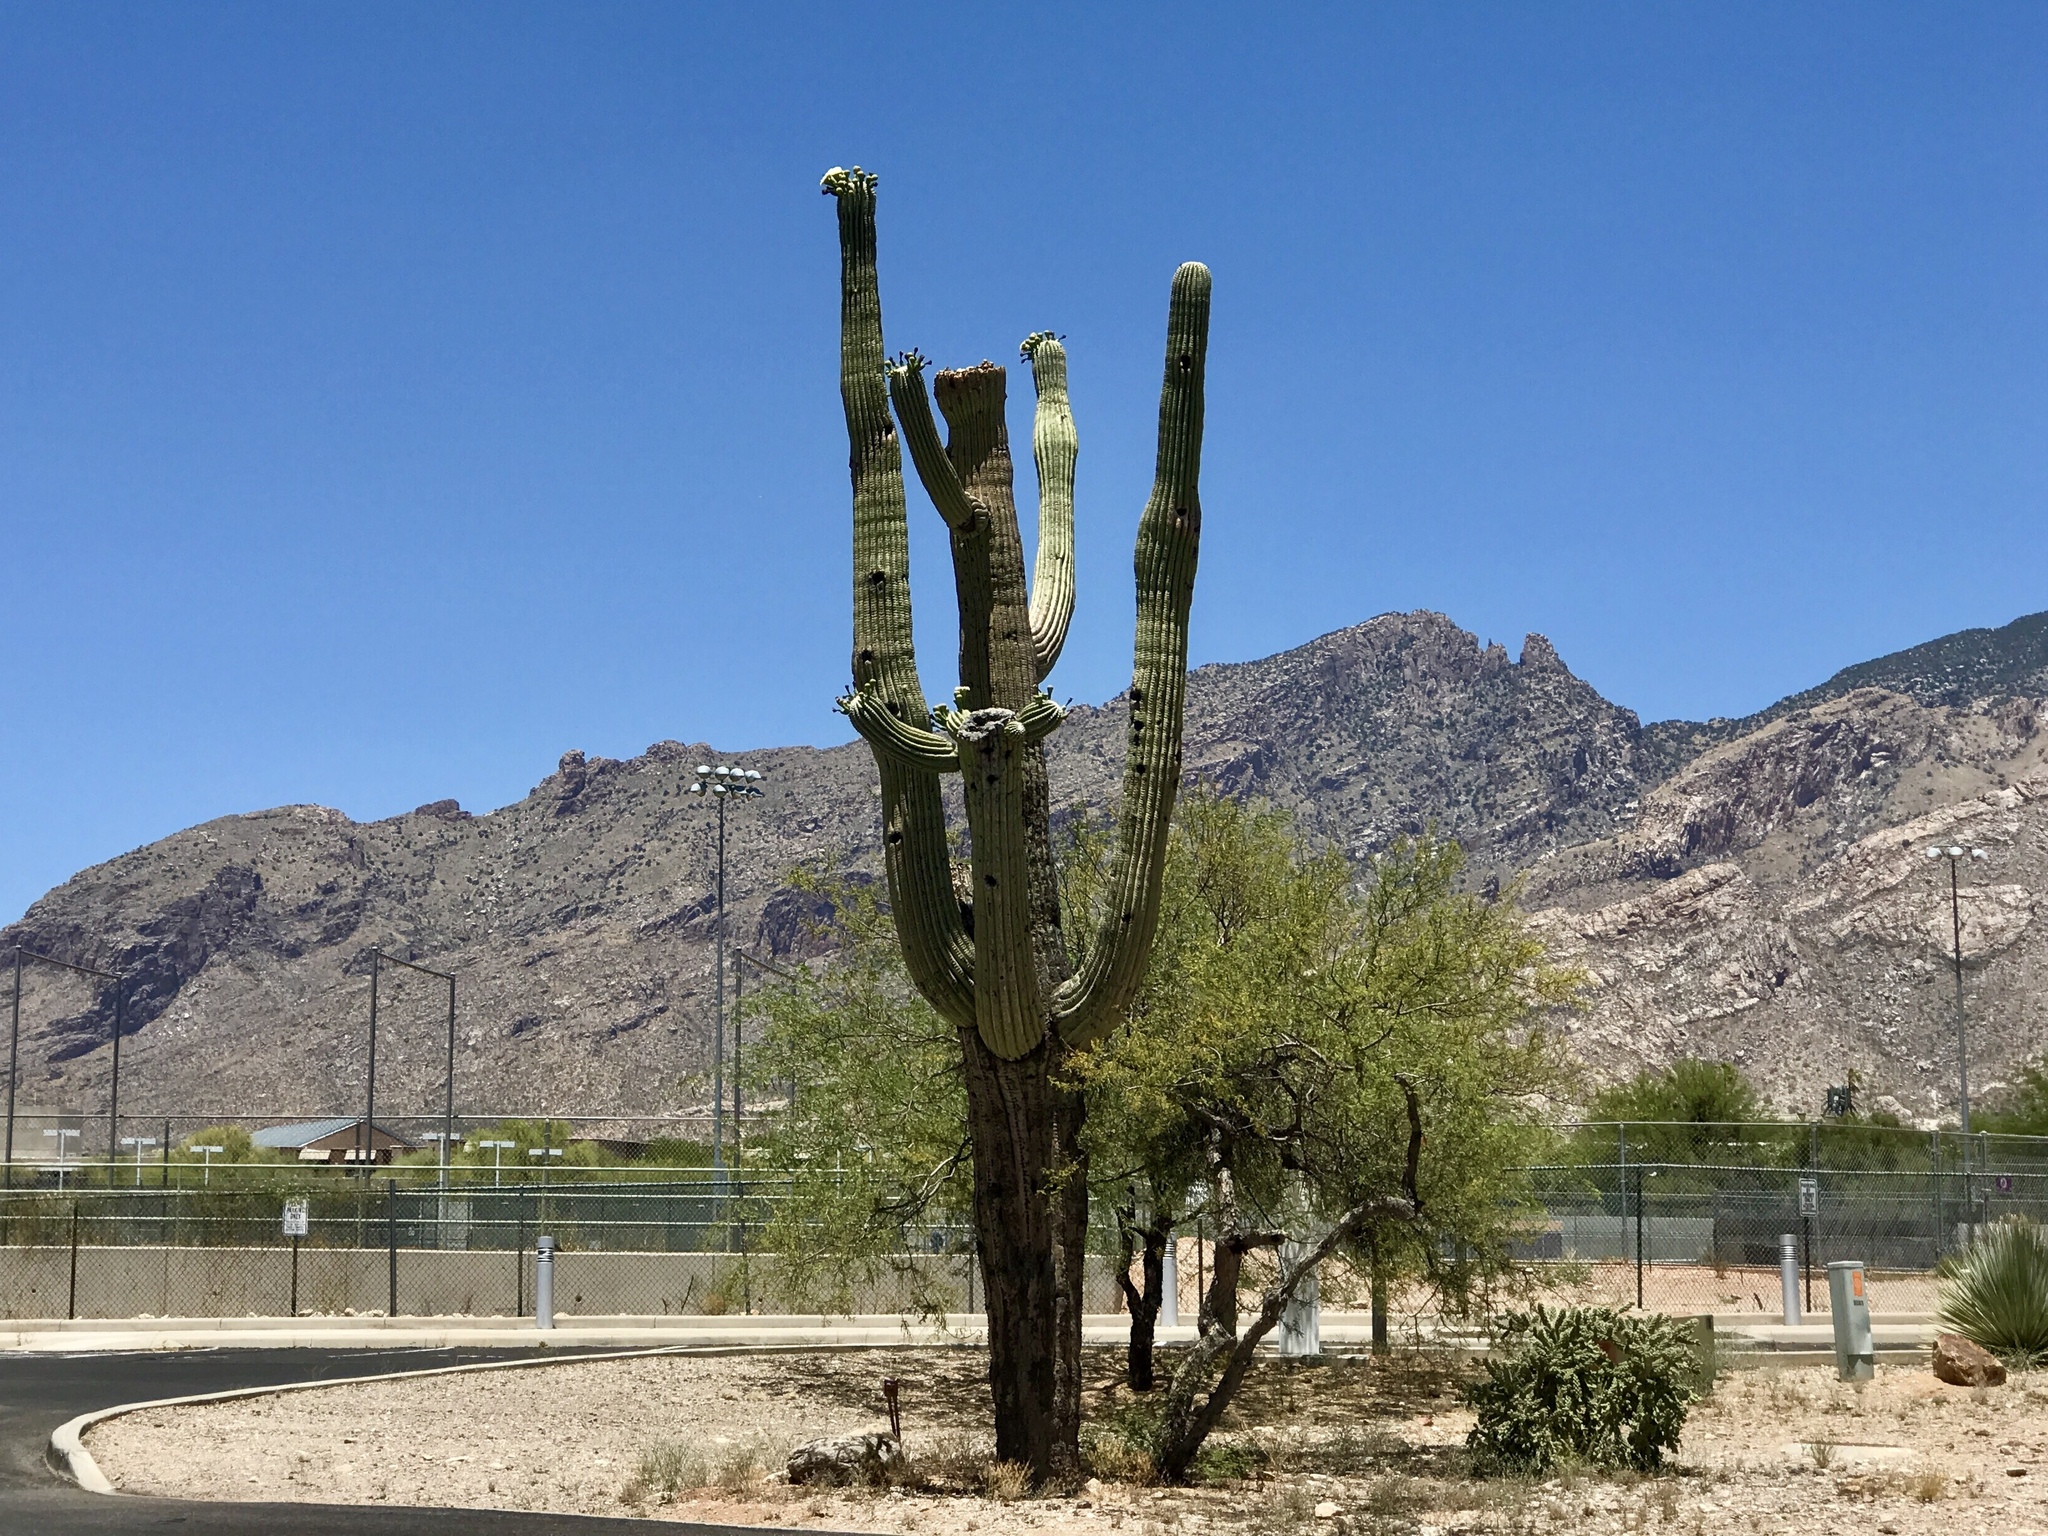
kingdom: Plantae
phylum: Tracheophyta
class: Magnoliopsida
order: Caryophyllales
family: Cactaceae
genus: Carnegiea
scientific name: Carnegiea gigantea
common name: Saguaro
